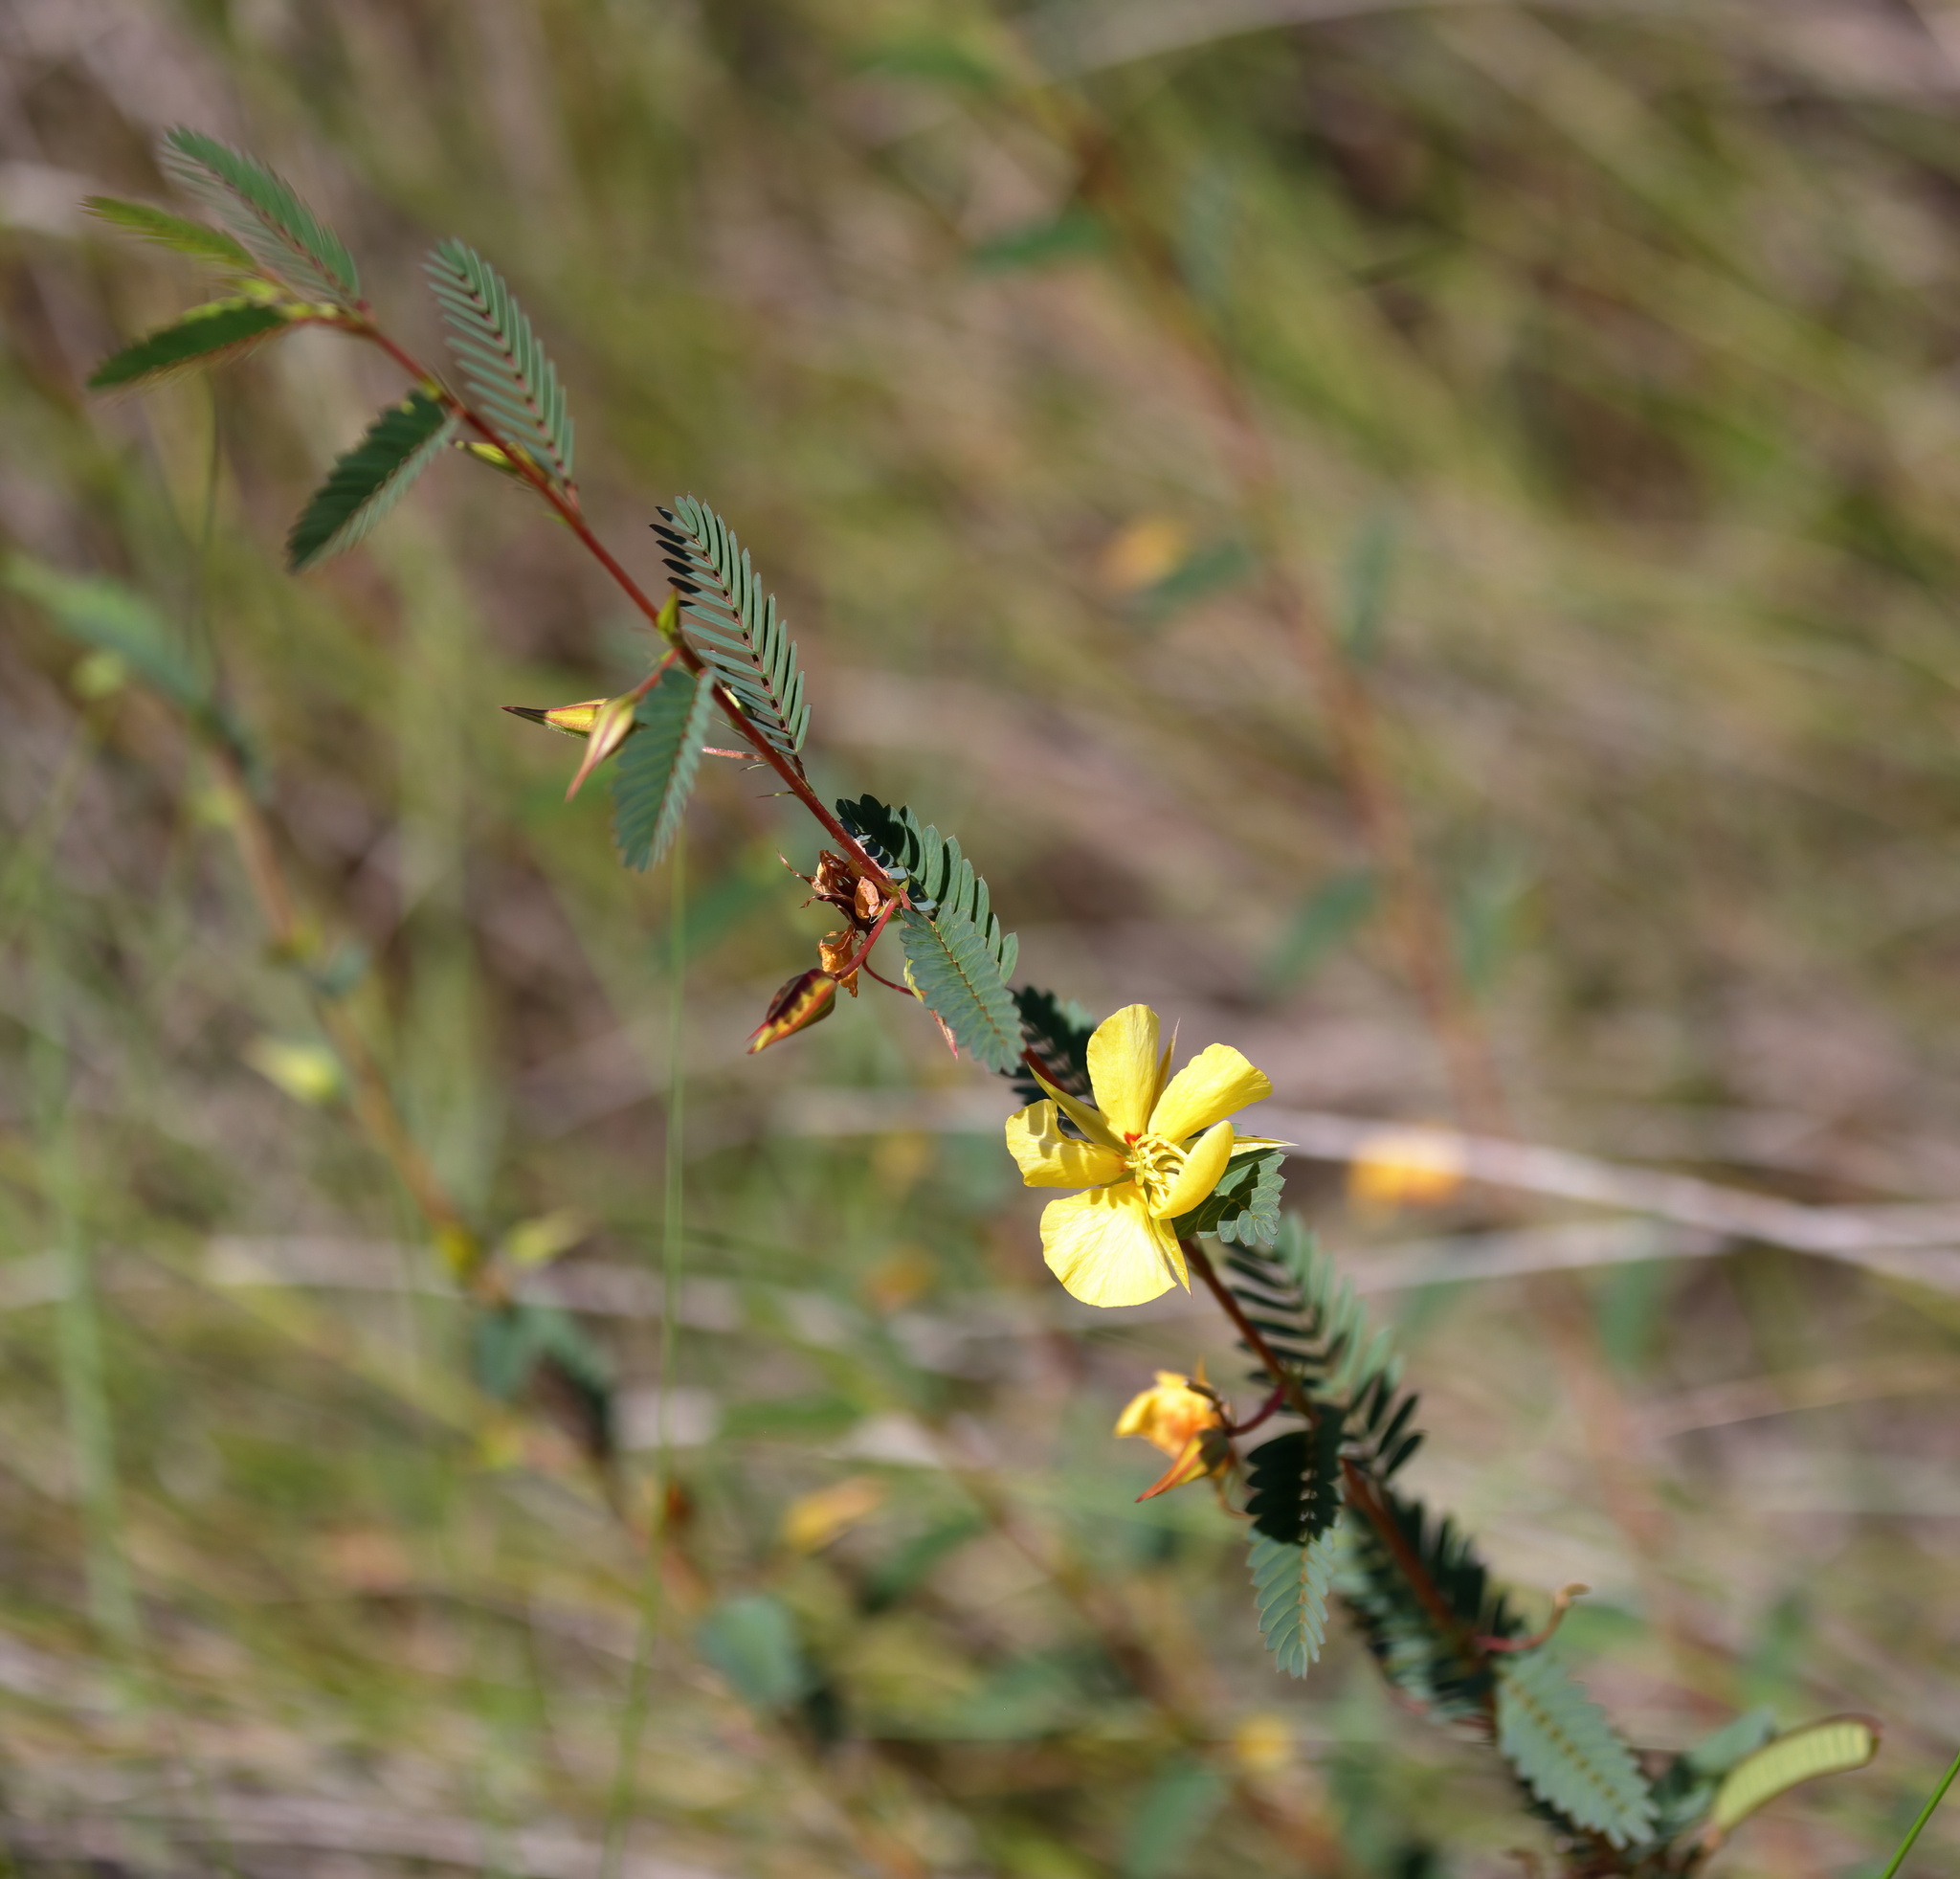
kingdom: Plantae
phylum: Tracheophyta
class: Magnoliopsida
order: Fabales
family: Fabaceae
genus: Chamaecrista
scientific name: Chamaecrista fasciculata
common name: Golden cassia
